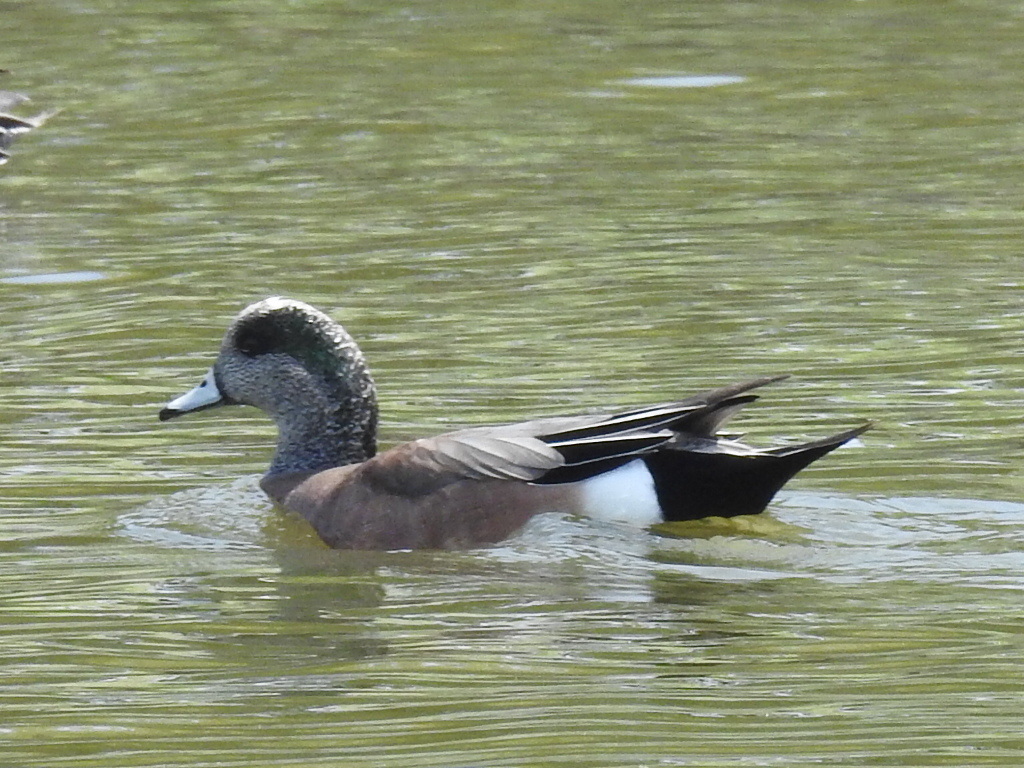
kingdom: Animalia
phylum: Chordata
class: Aves
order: Anseriformes
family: Anatidae
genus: Mareca
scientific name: Mareca americana
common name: American wigeon
